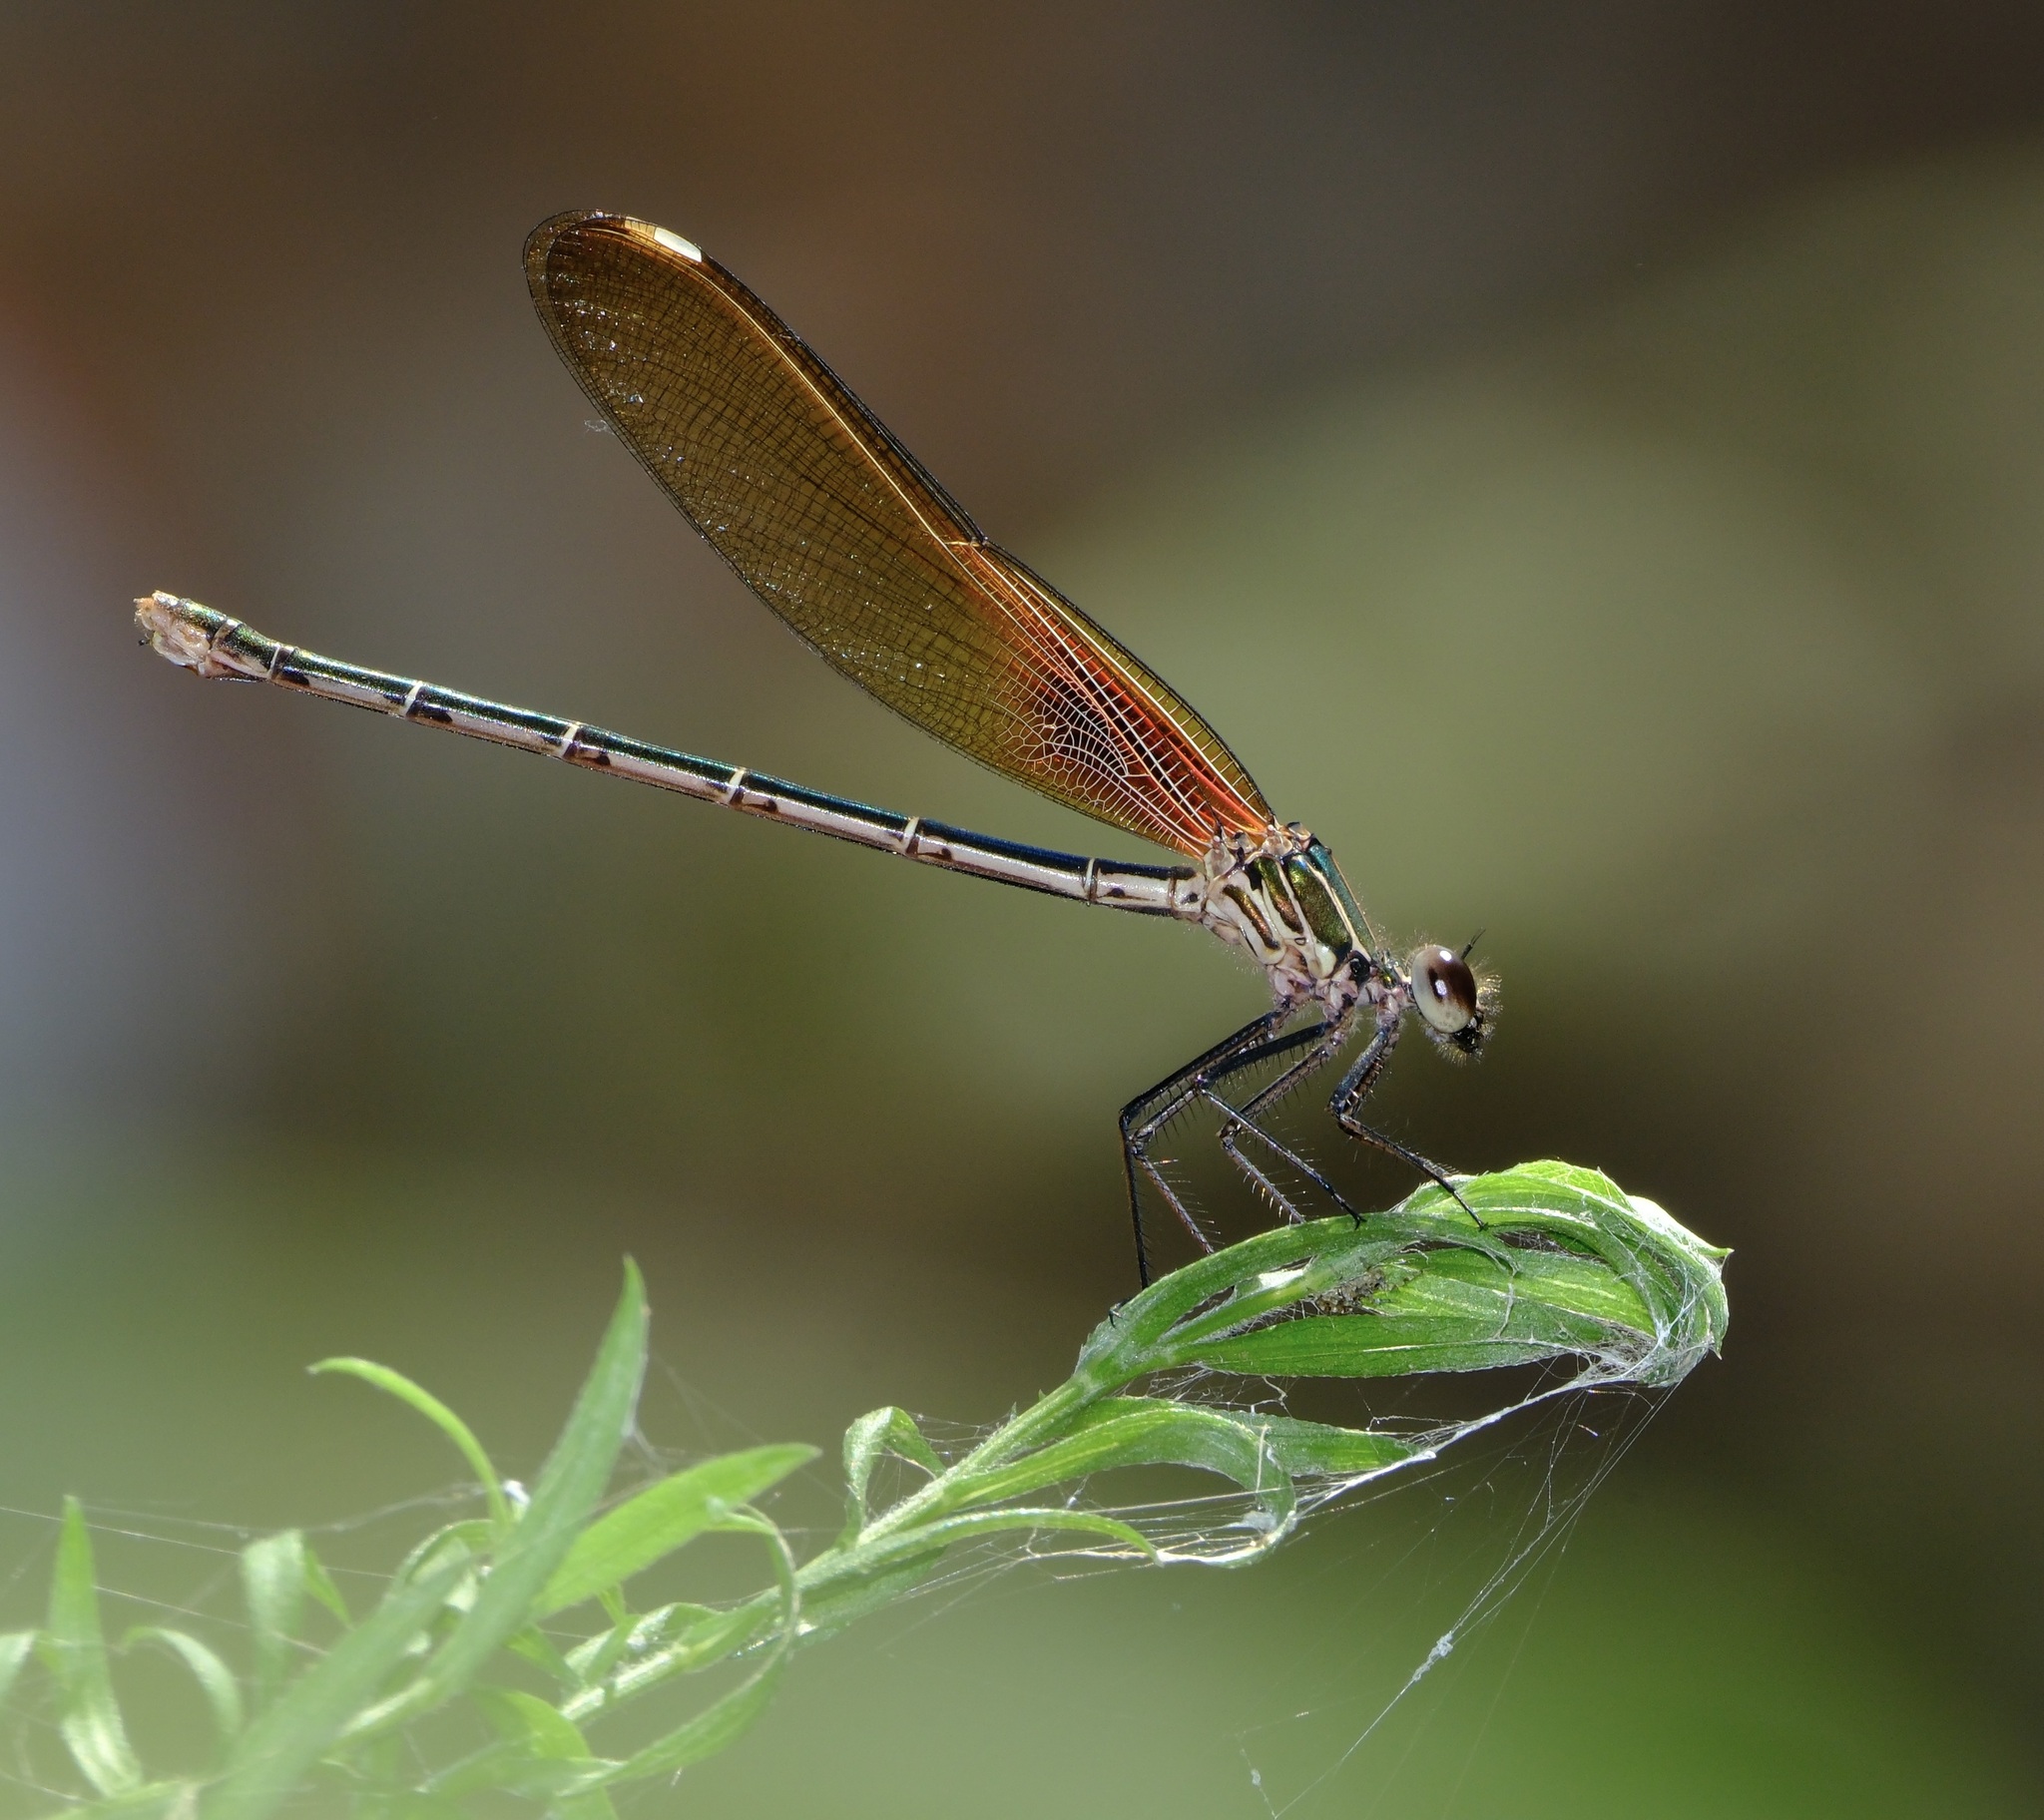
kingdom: Animalia
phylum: Arthropoda
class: Insecta
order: Odonata
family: Calopterygidae
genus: Hetaerina
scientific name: Hetaerina americana
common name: American rubyspot
